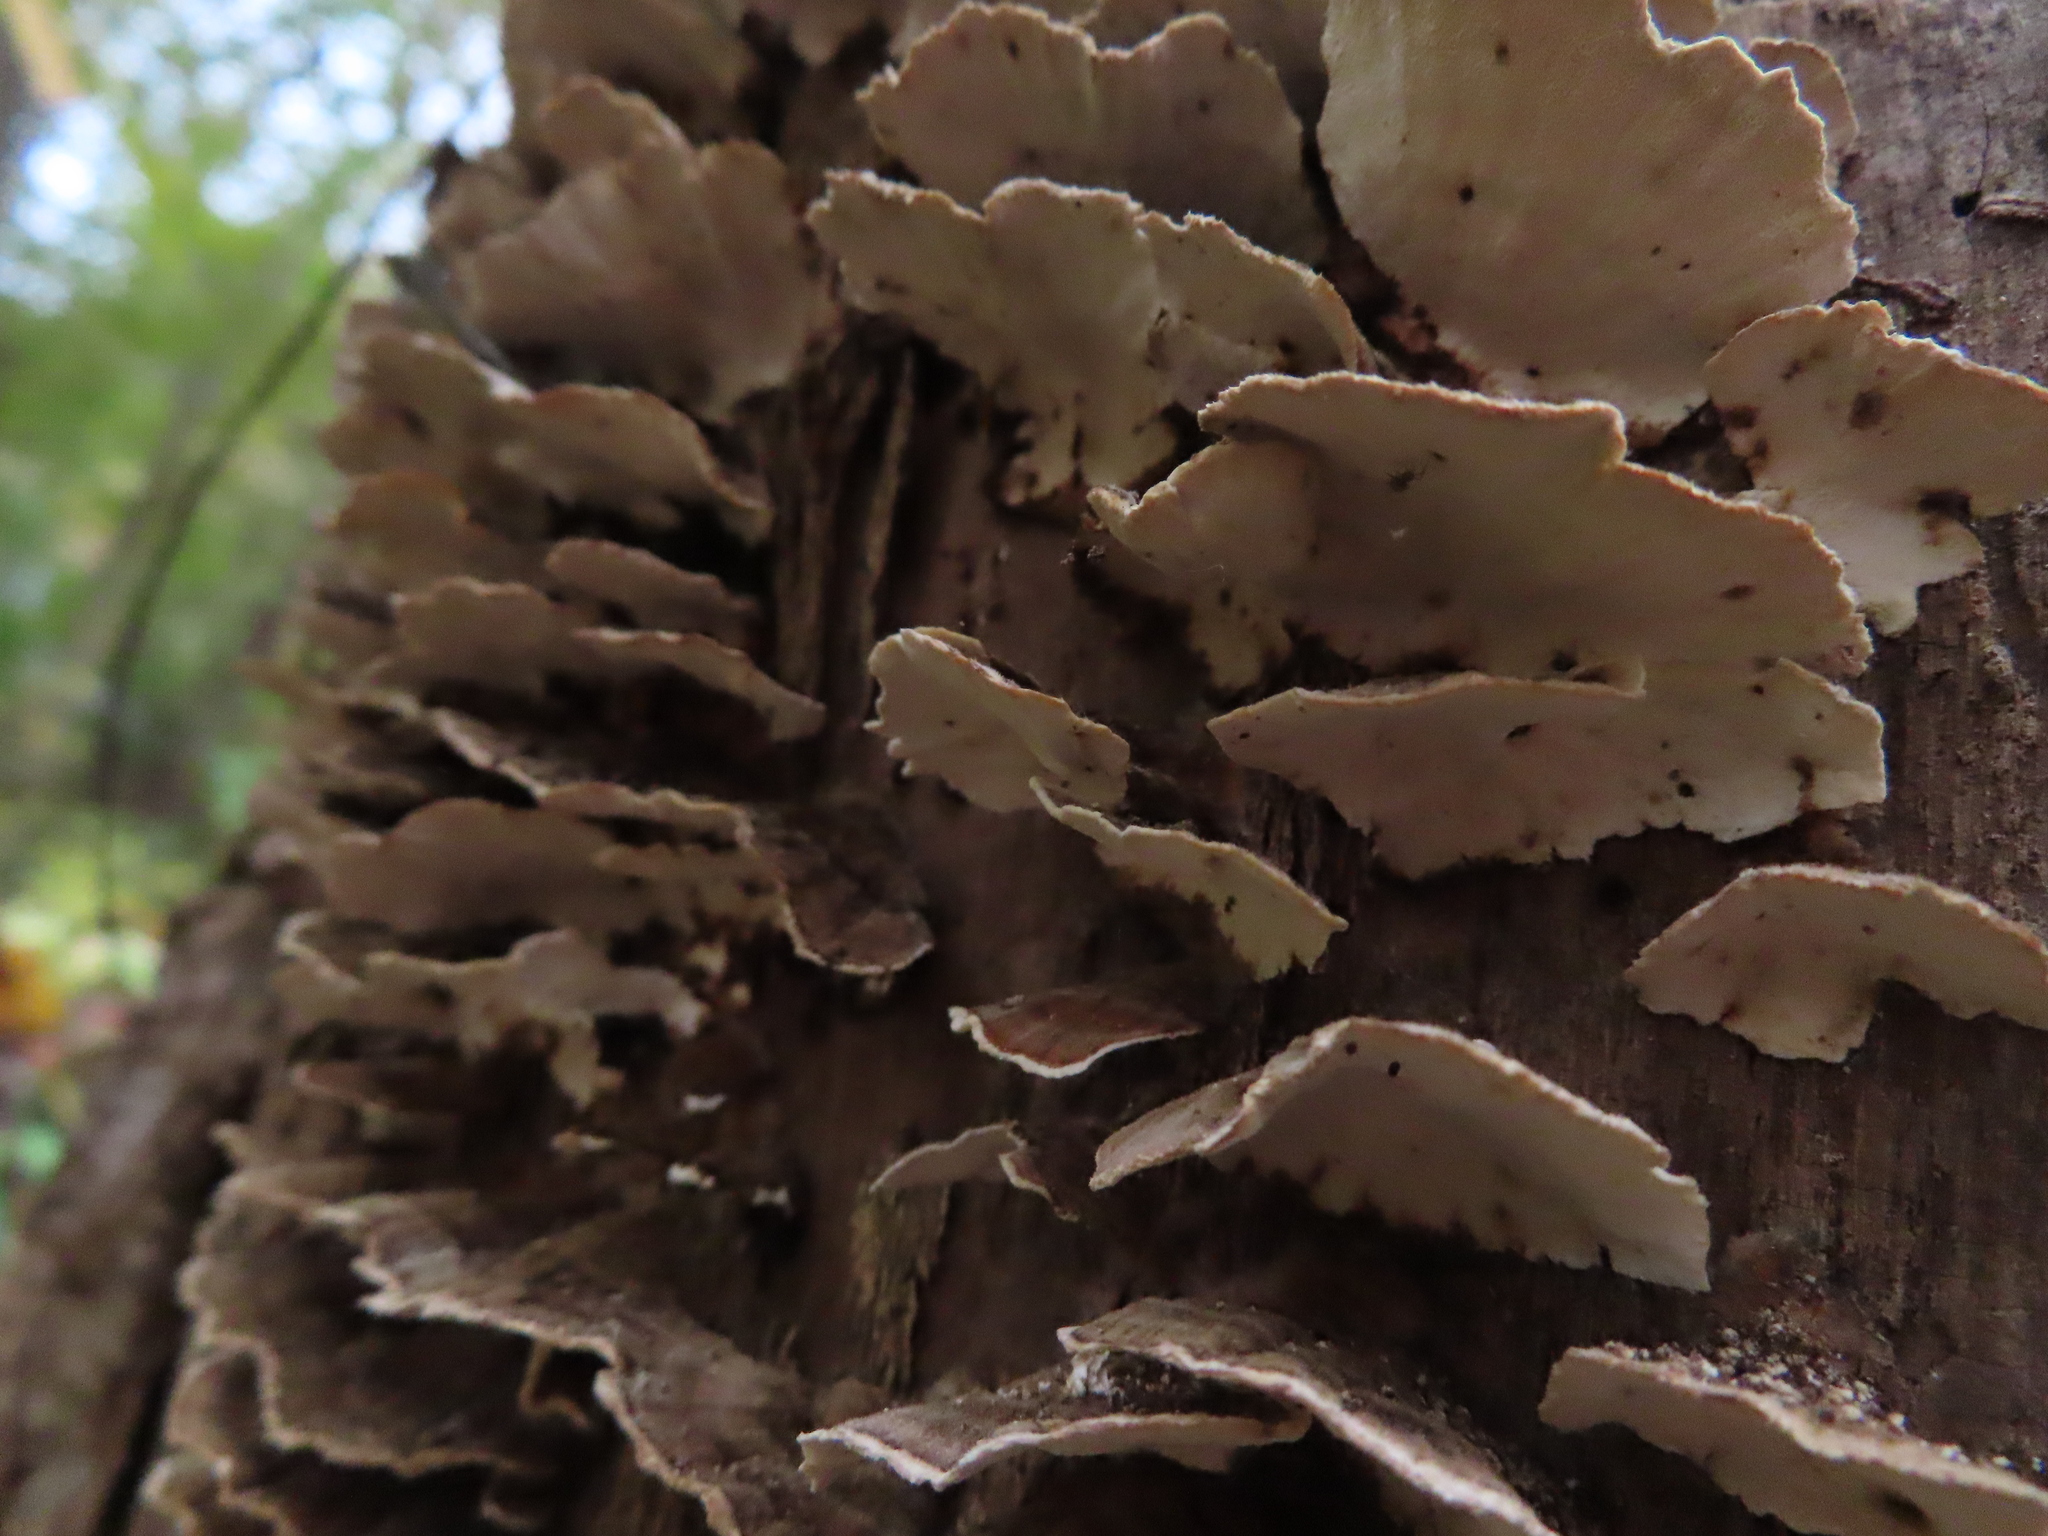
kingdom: Fungi
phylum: Basidiomycota
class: Agaricomycetes
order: Polyporales
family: Polyporaceae
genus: Trametes
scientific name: Trametes versicolor
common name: Turkeytail
